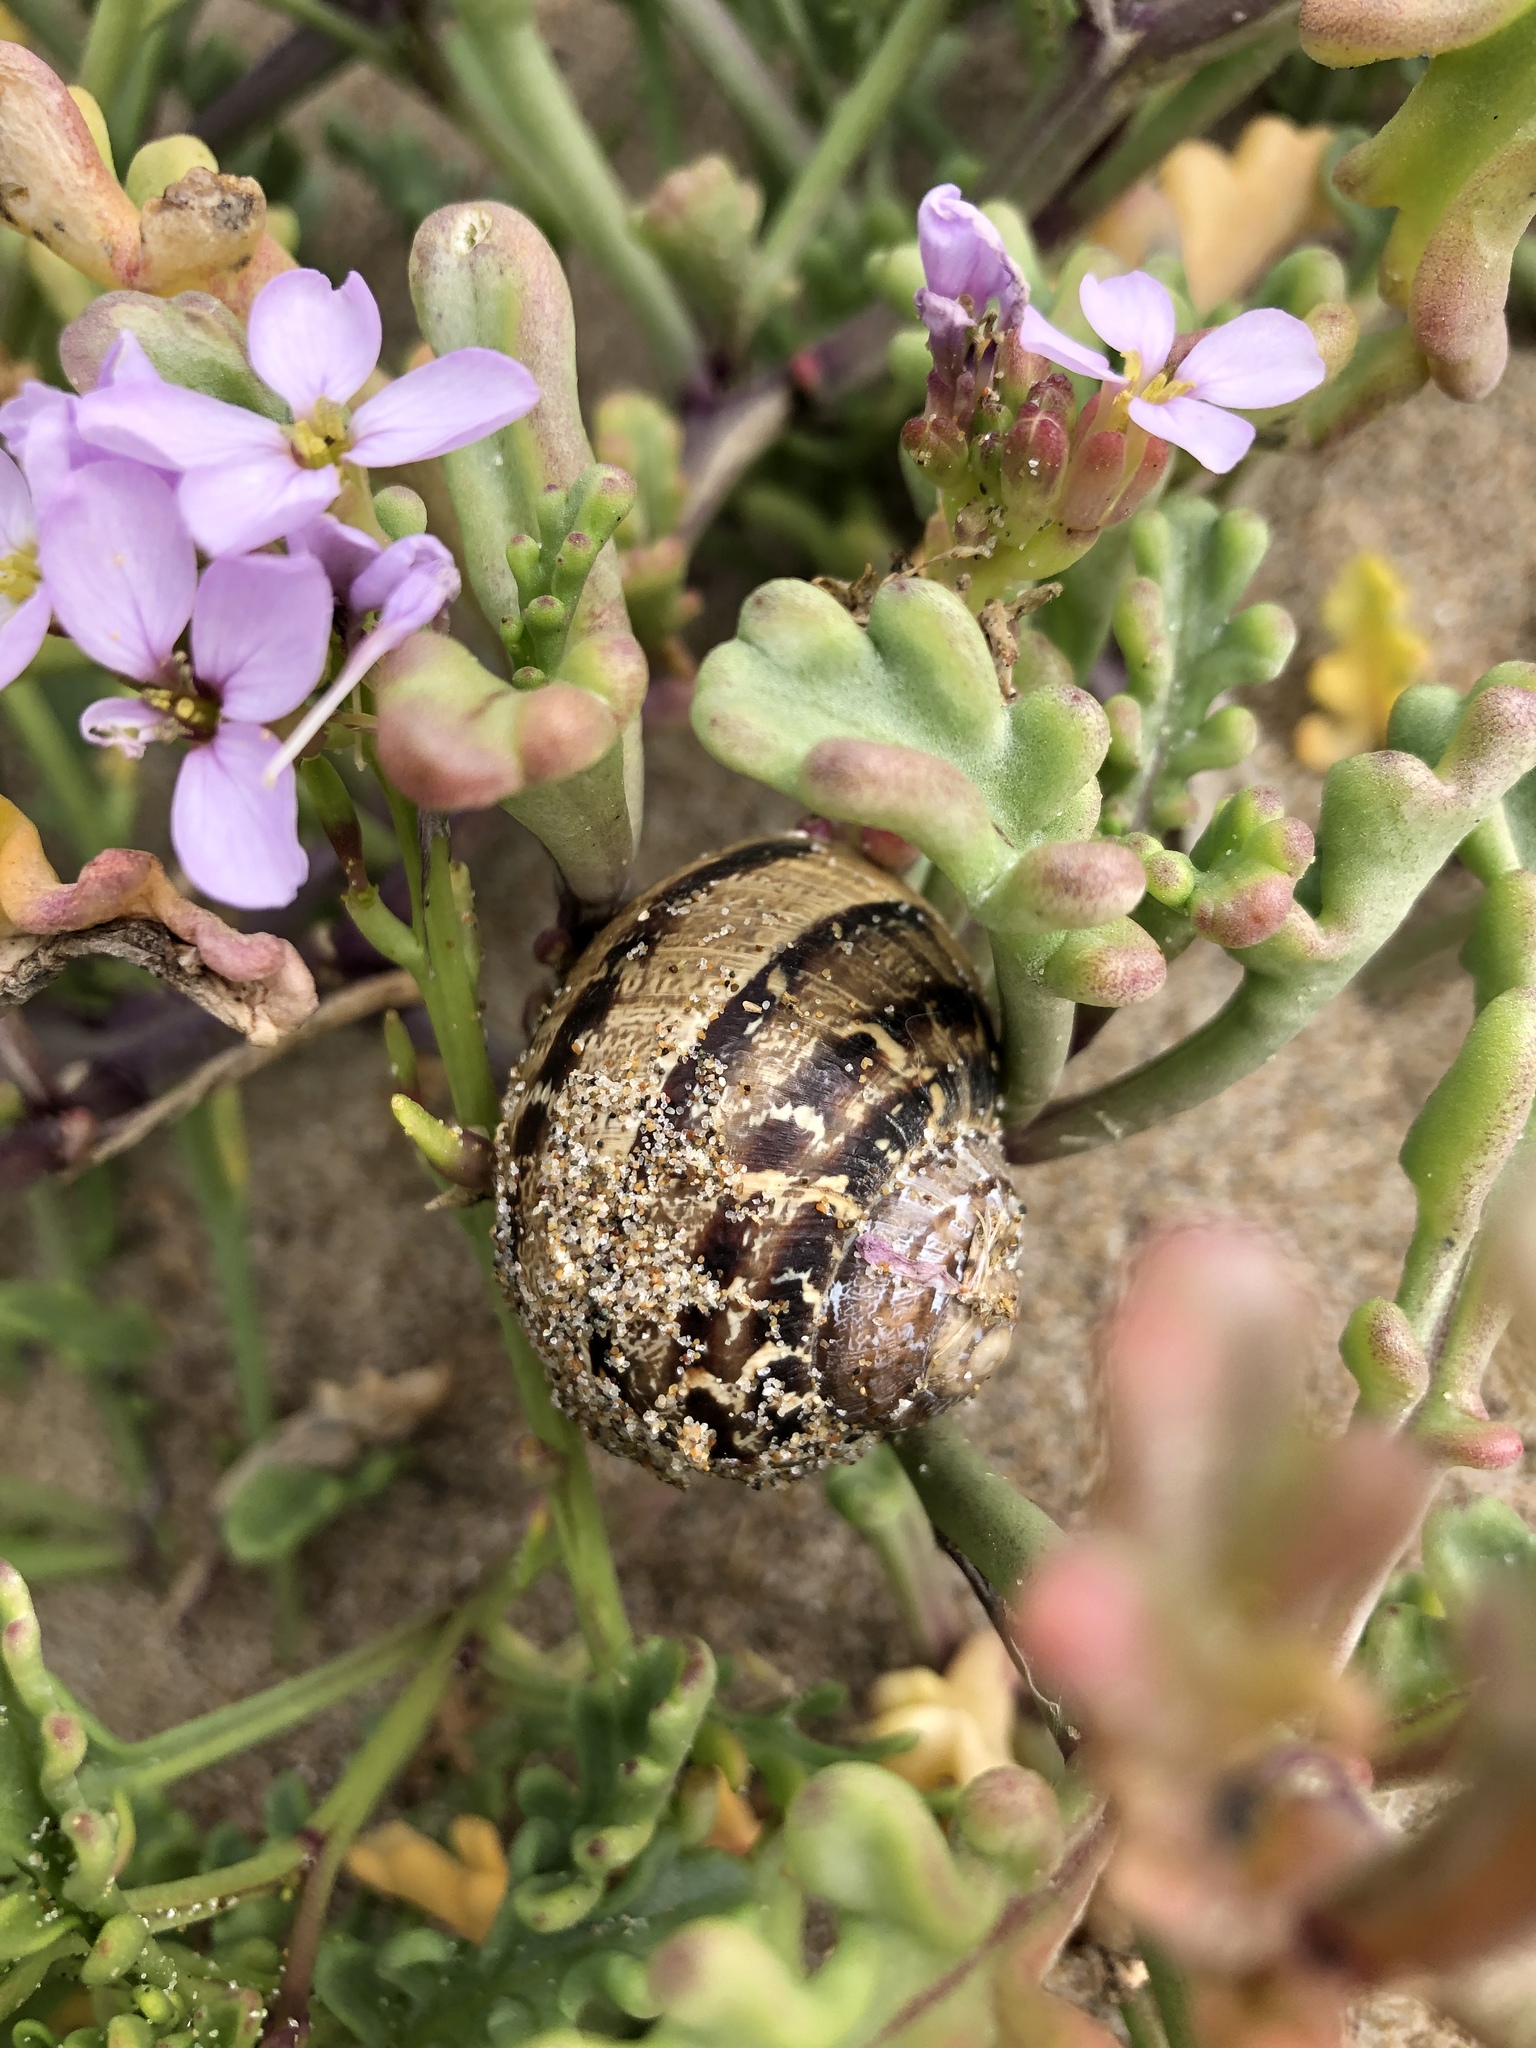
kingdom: Animalia
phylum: Mollusca
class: Gastropoda
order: Stylommatophora
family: Helicidae
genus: Cornu
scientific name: Cornu aspersum
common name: Brown garden snail
